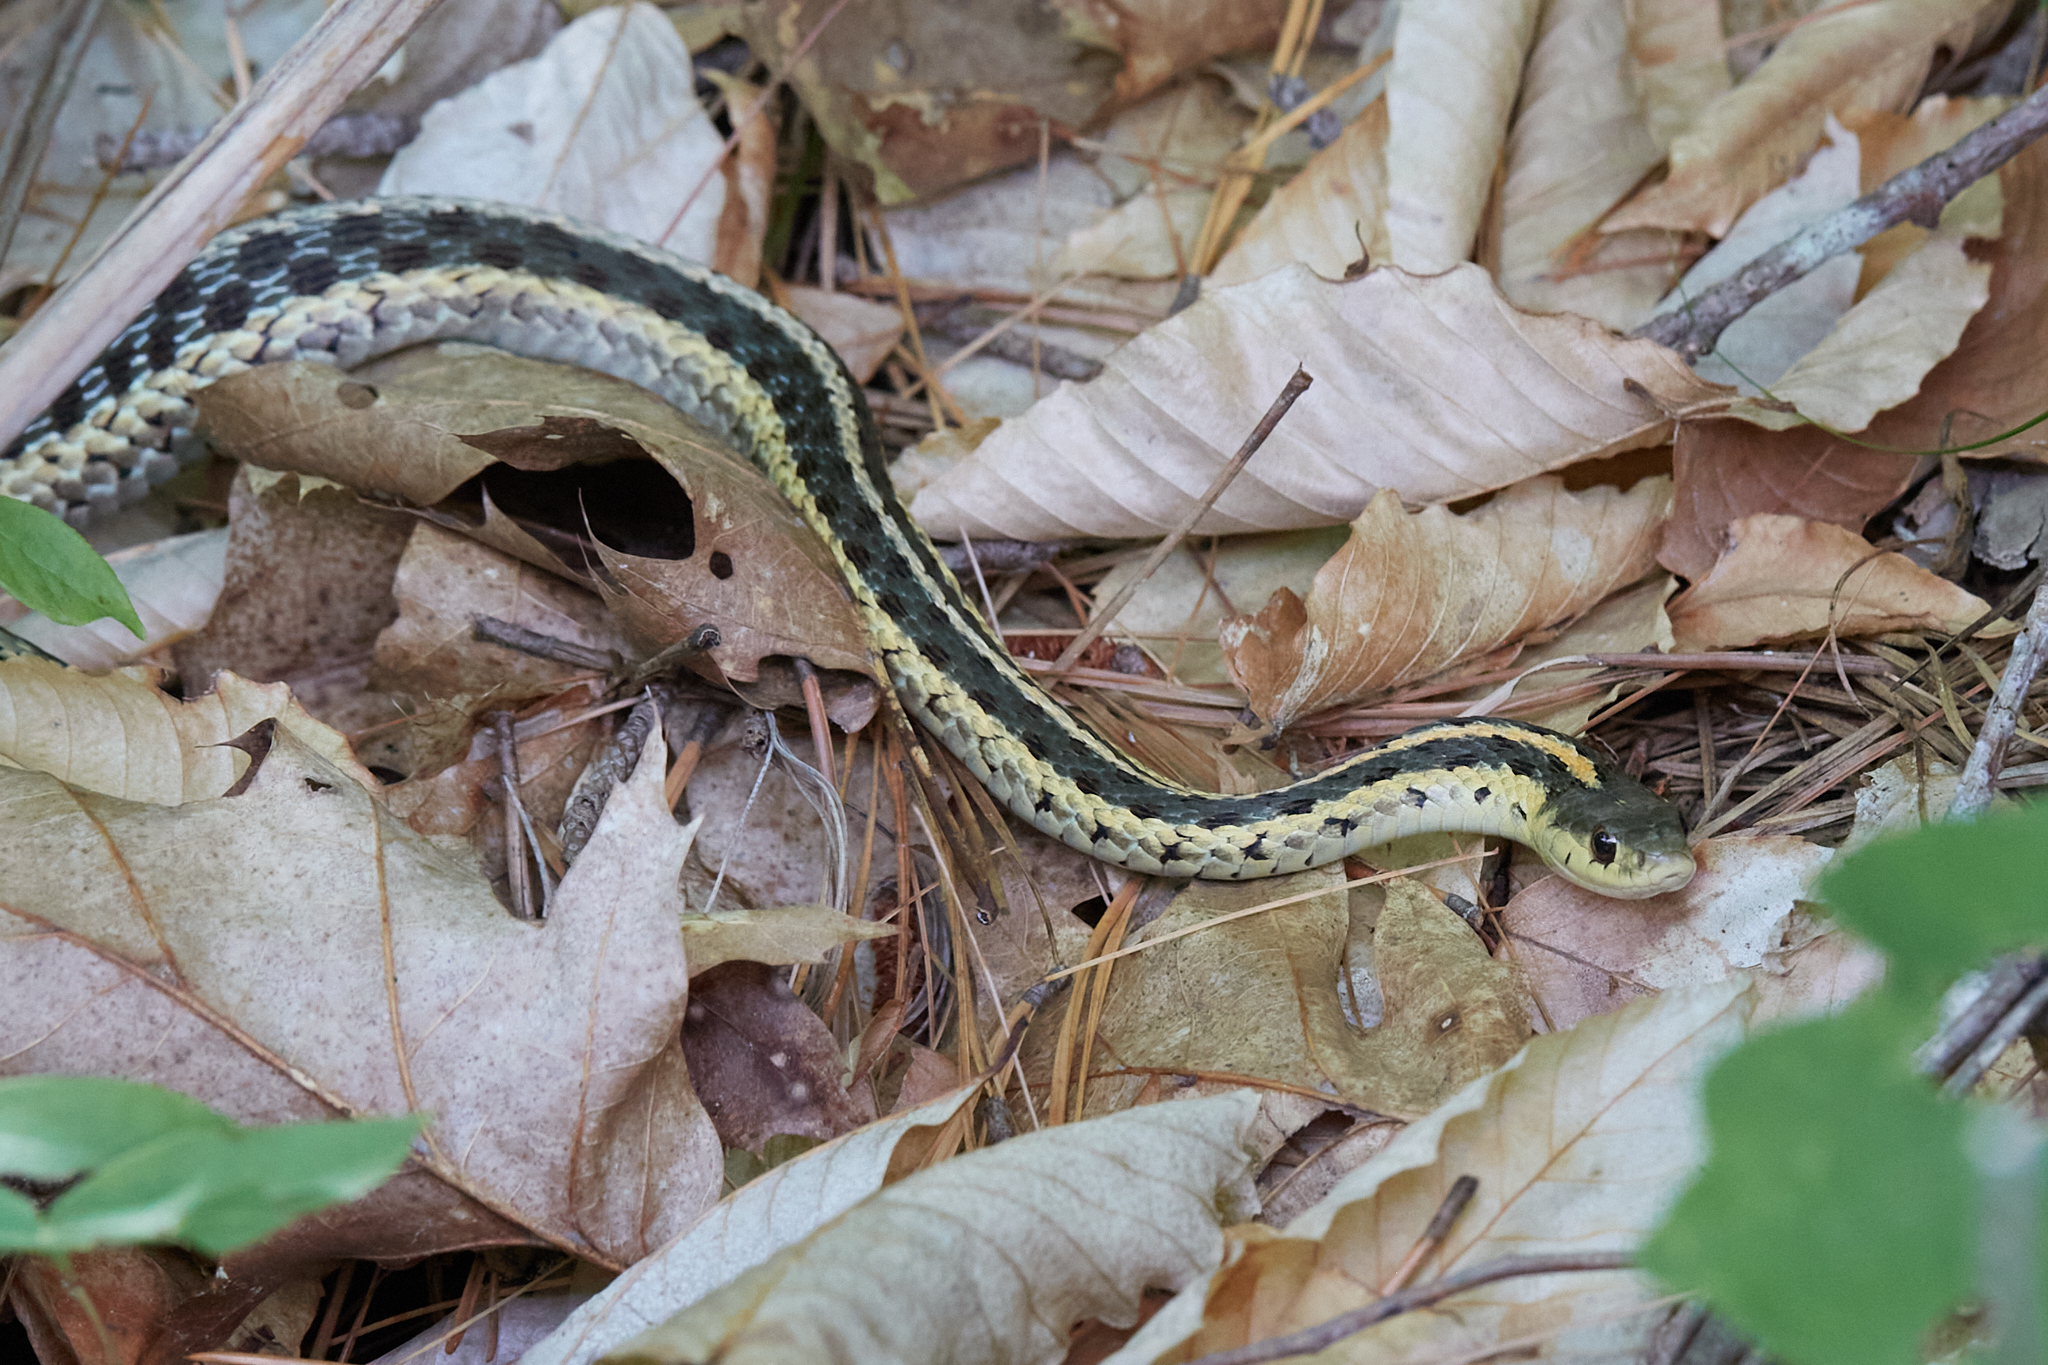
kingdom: Animalia
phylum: Chordata
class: Squamata
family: Colubridae
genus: Thamnophis
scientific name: Thamnophis sirtalis
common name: Common garter snake
